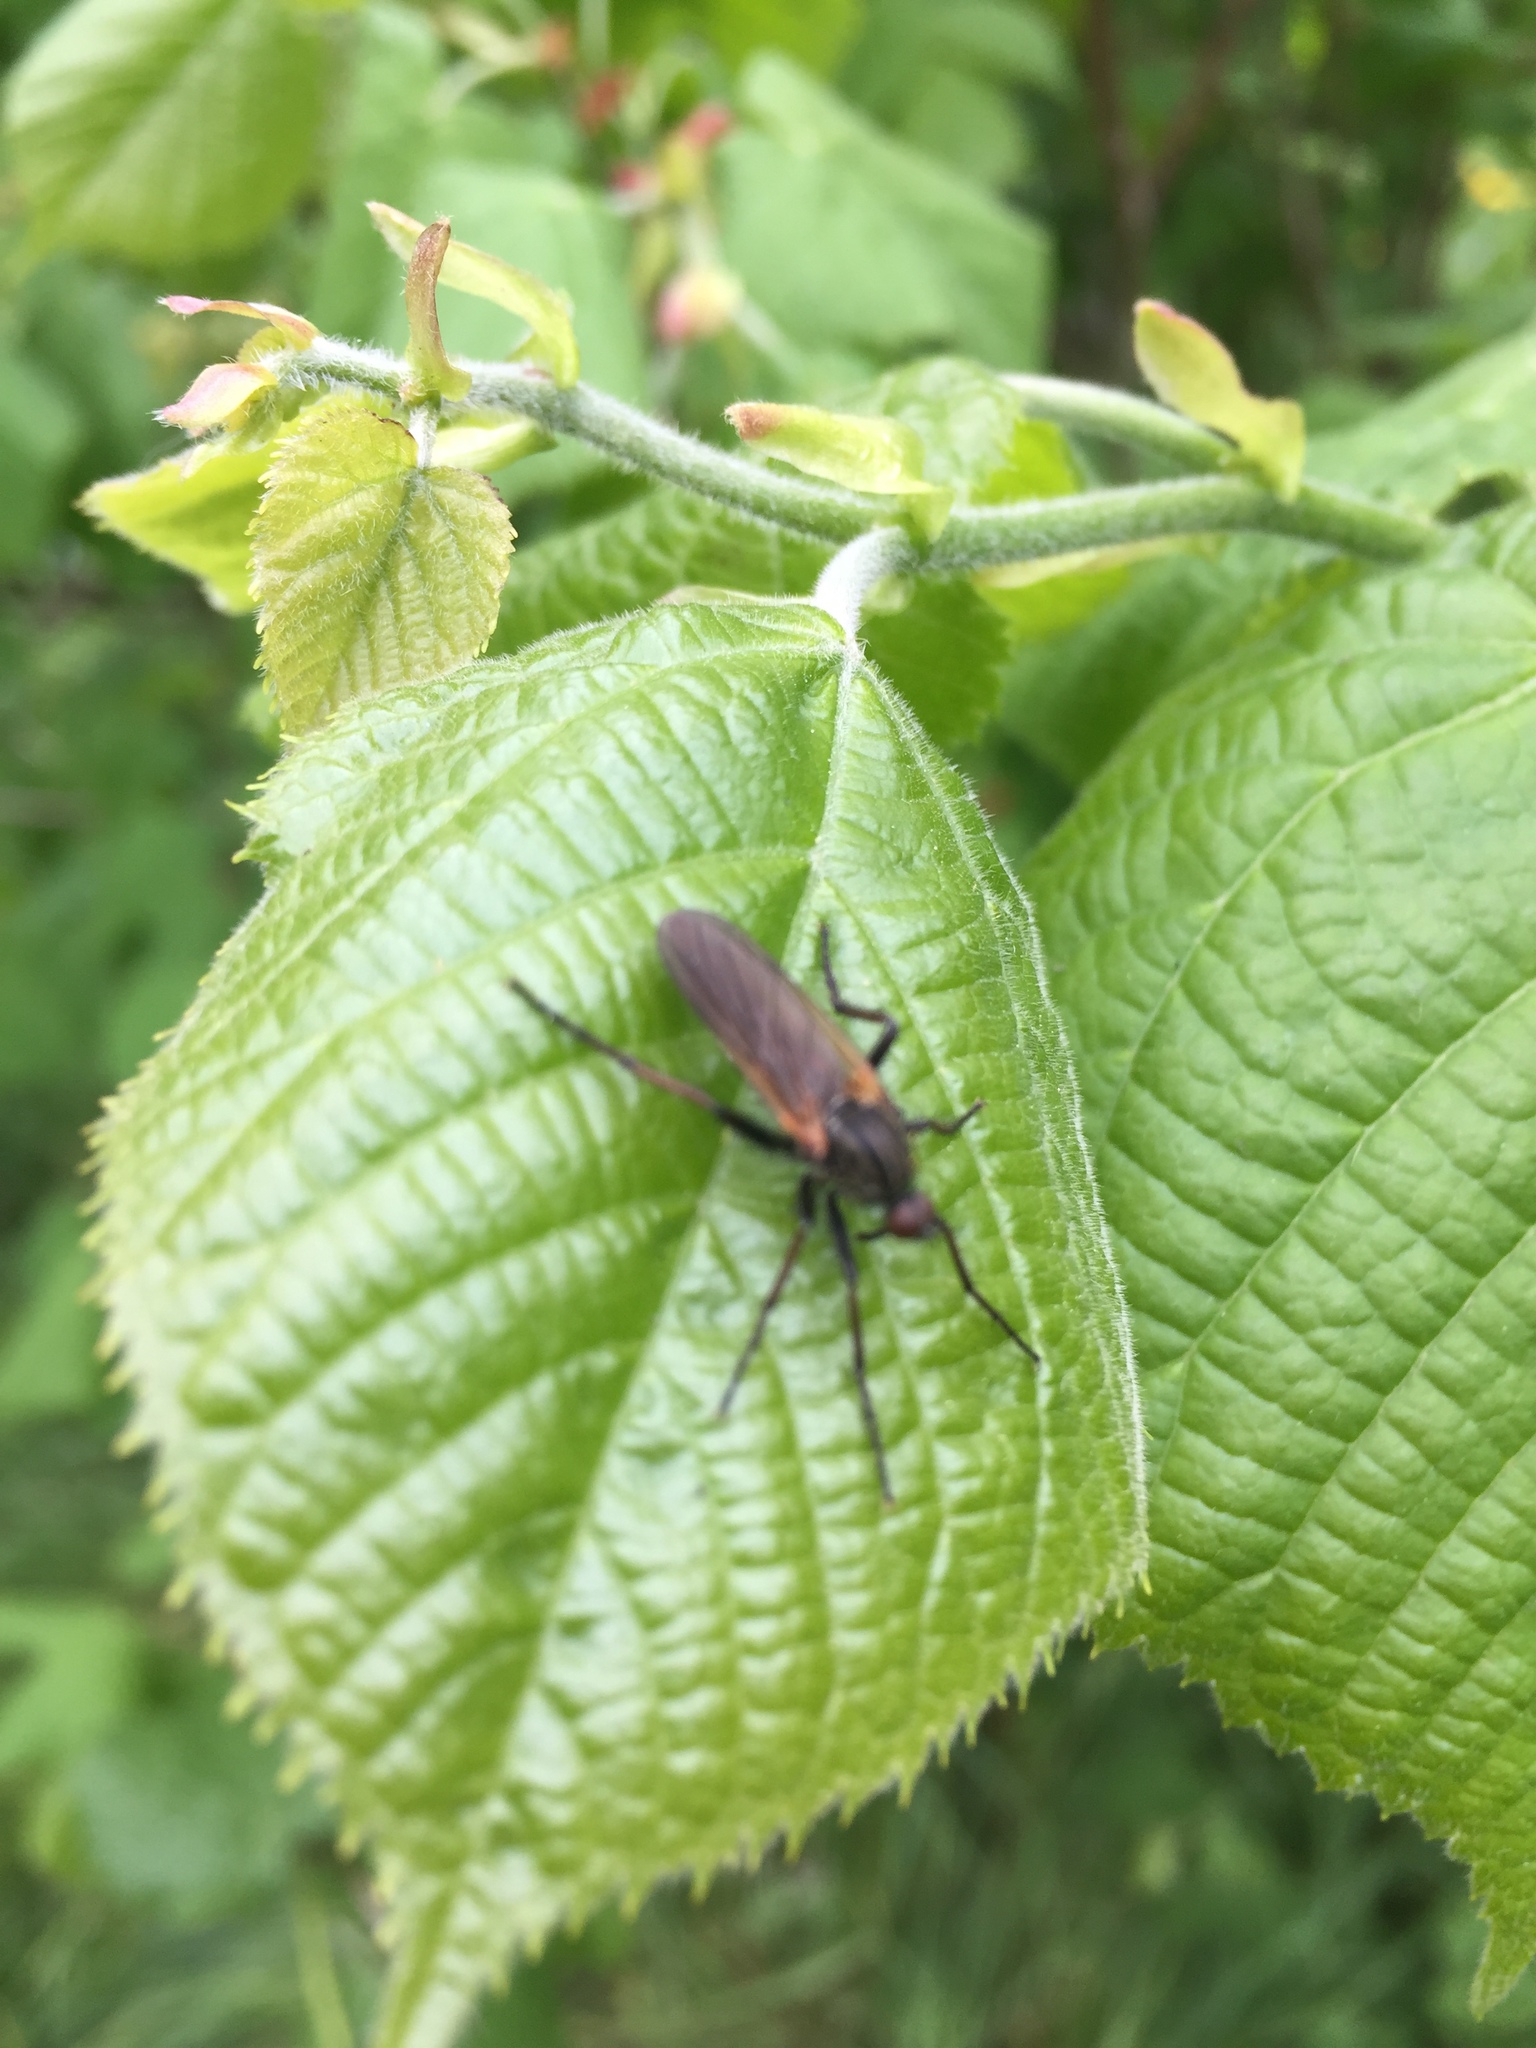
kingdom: Animalia
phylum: Arthropoda
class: Insecta
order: Diptera
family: Empididae
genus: Empis
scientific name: Empis tessellata
